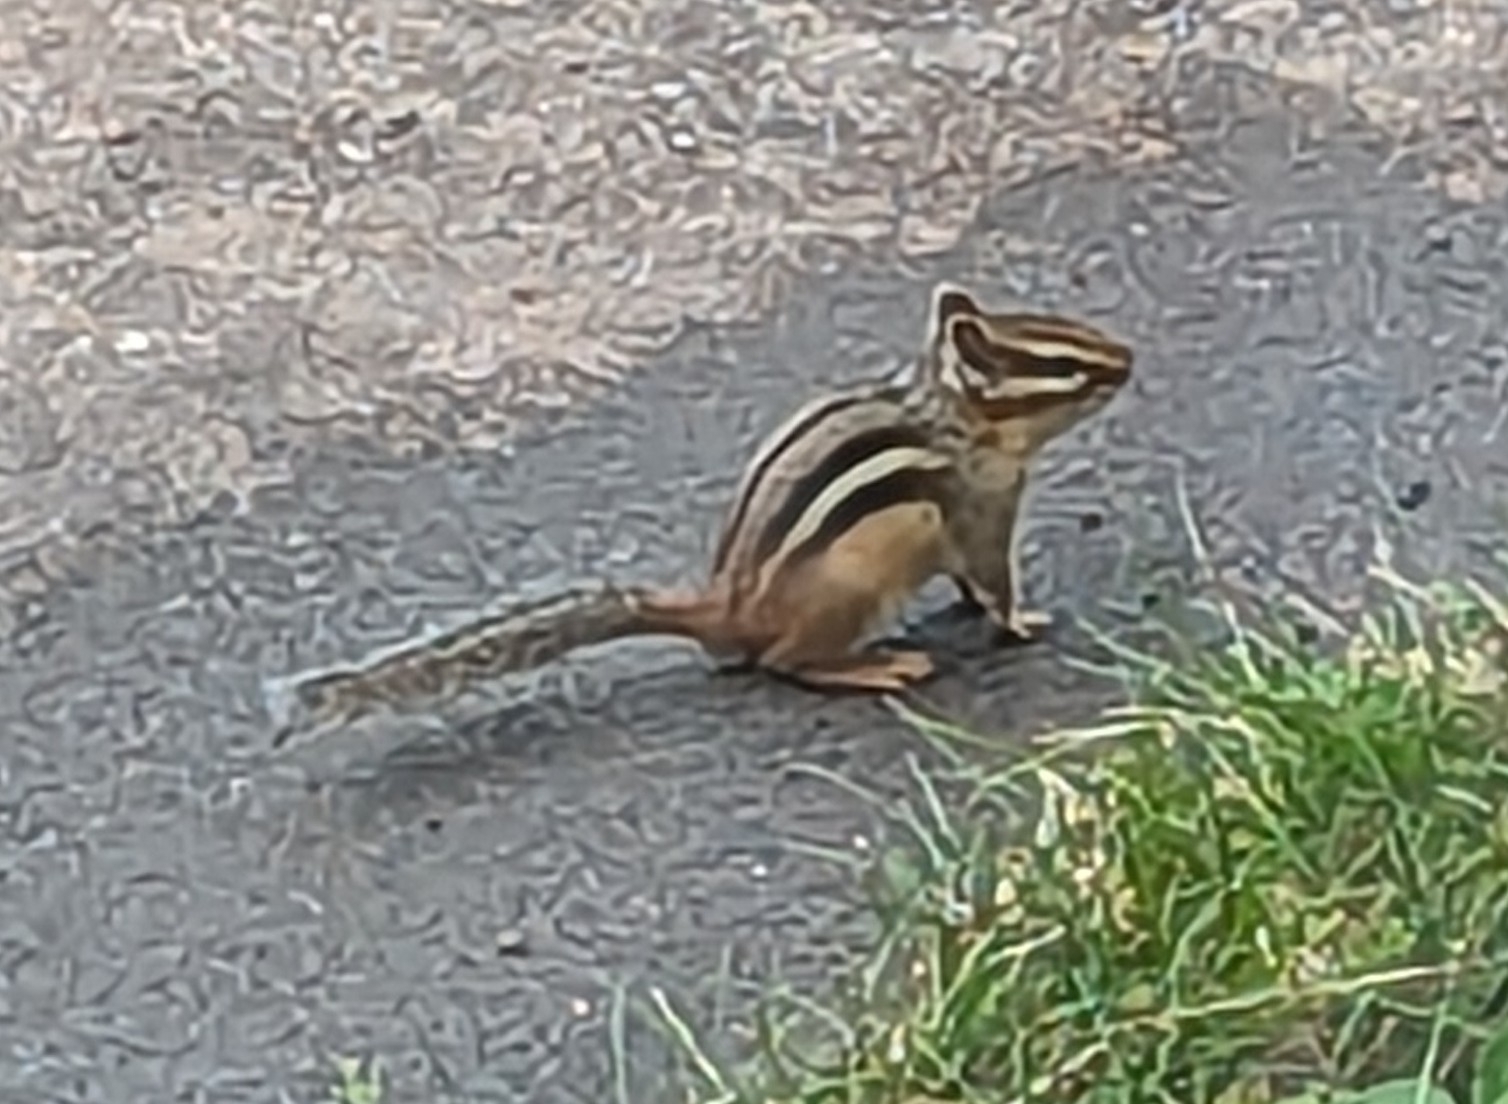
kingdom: Animalia
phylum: Chordata
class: Mammalia
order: Rodentia
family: Sciuridae
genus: Tamias
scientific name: Tamias minimus
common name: Least chipmunk
